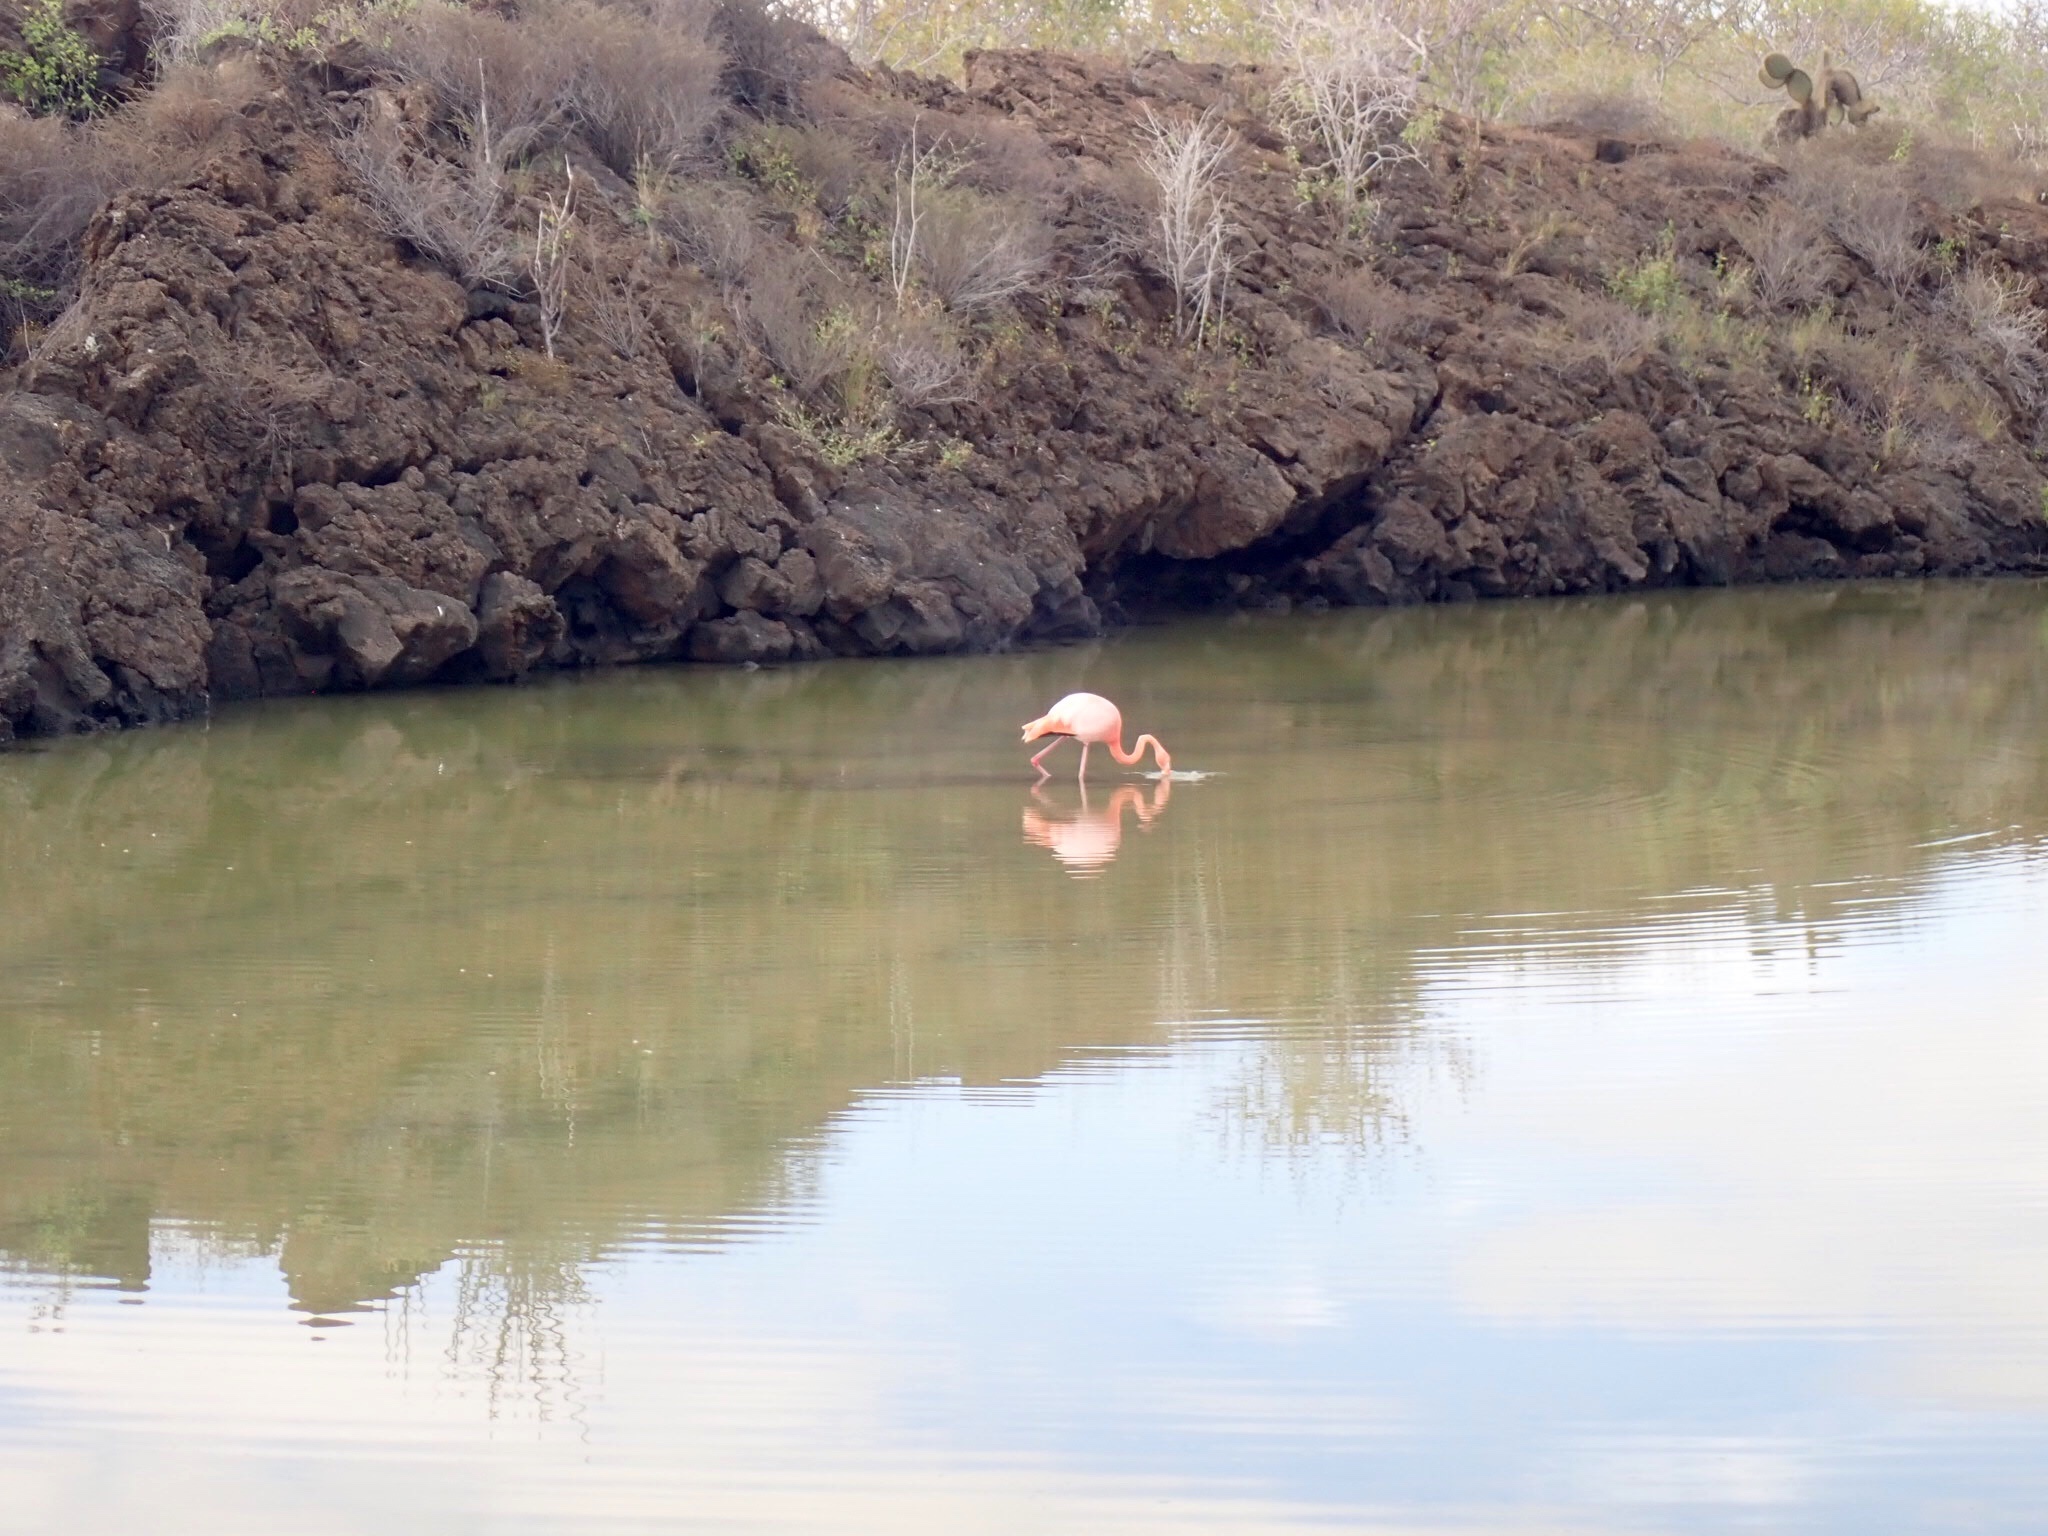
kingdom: Animalia
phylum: Chordata
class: Aves
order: Phoenicopteriformes
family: Phoenicopteridae
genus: Phoenicopterus
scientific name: Phoenicopterus ruber
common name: American flamingo
